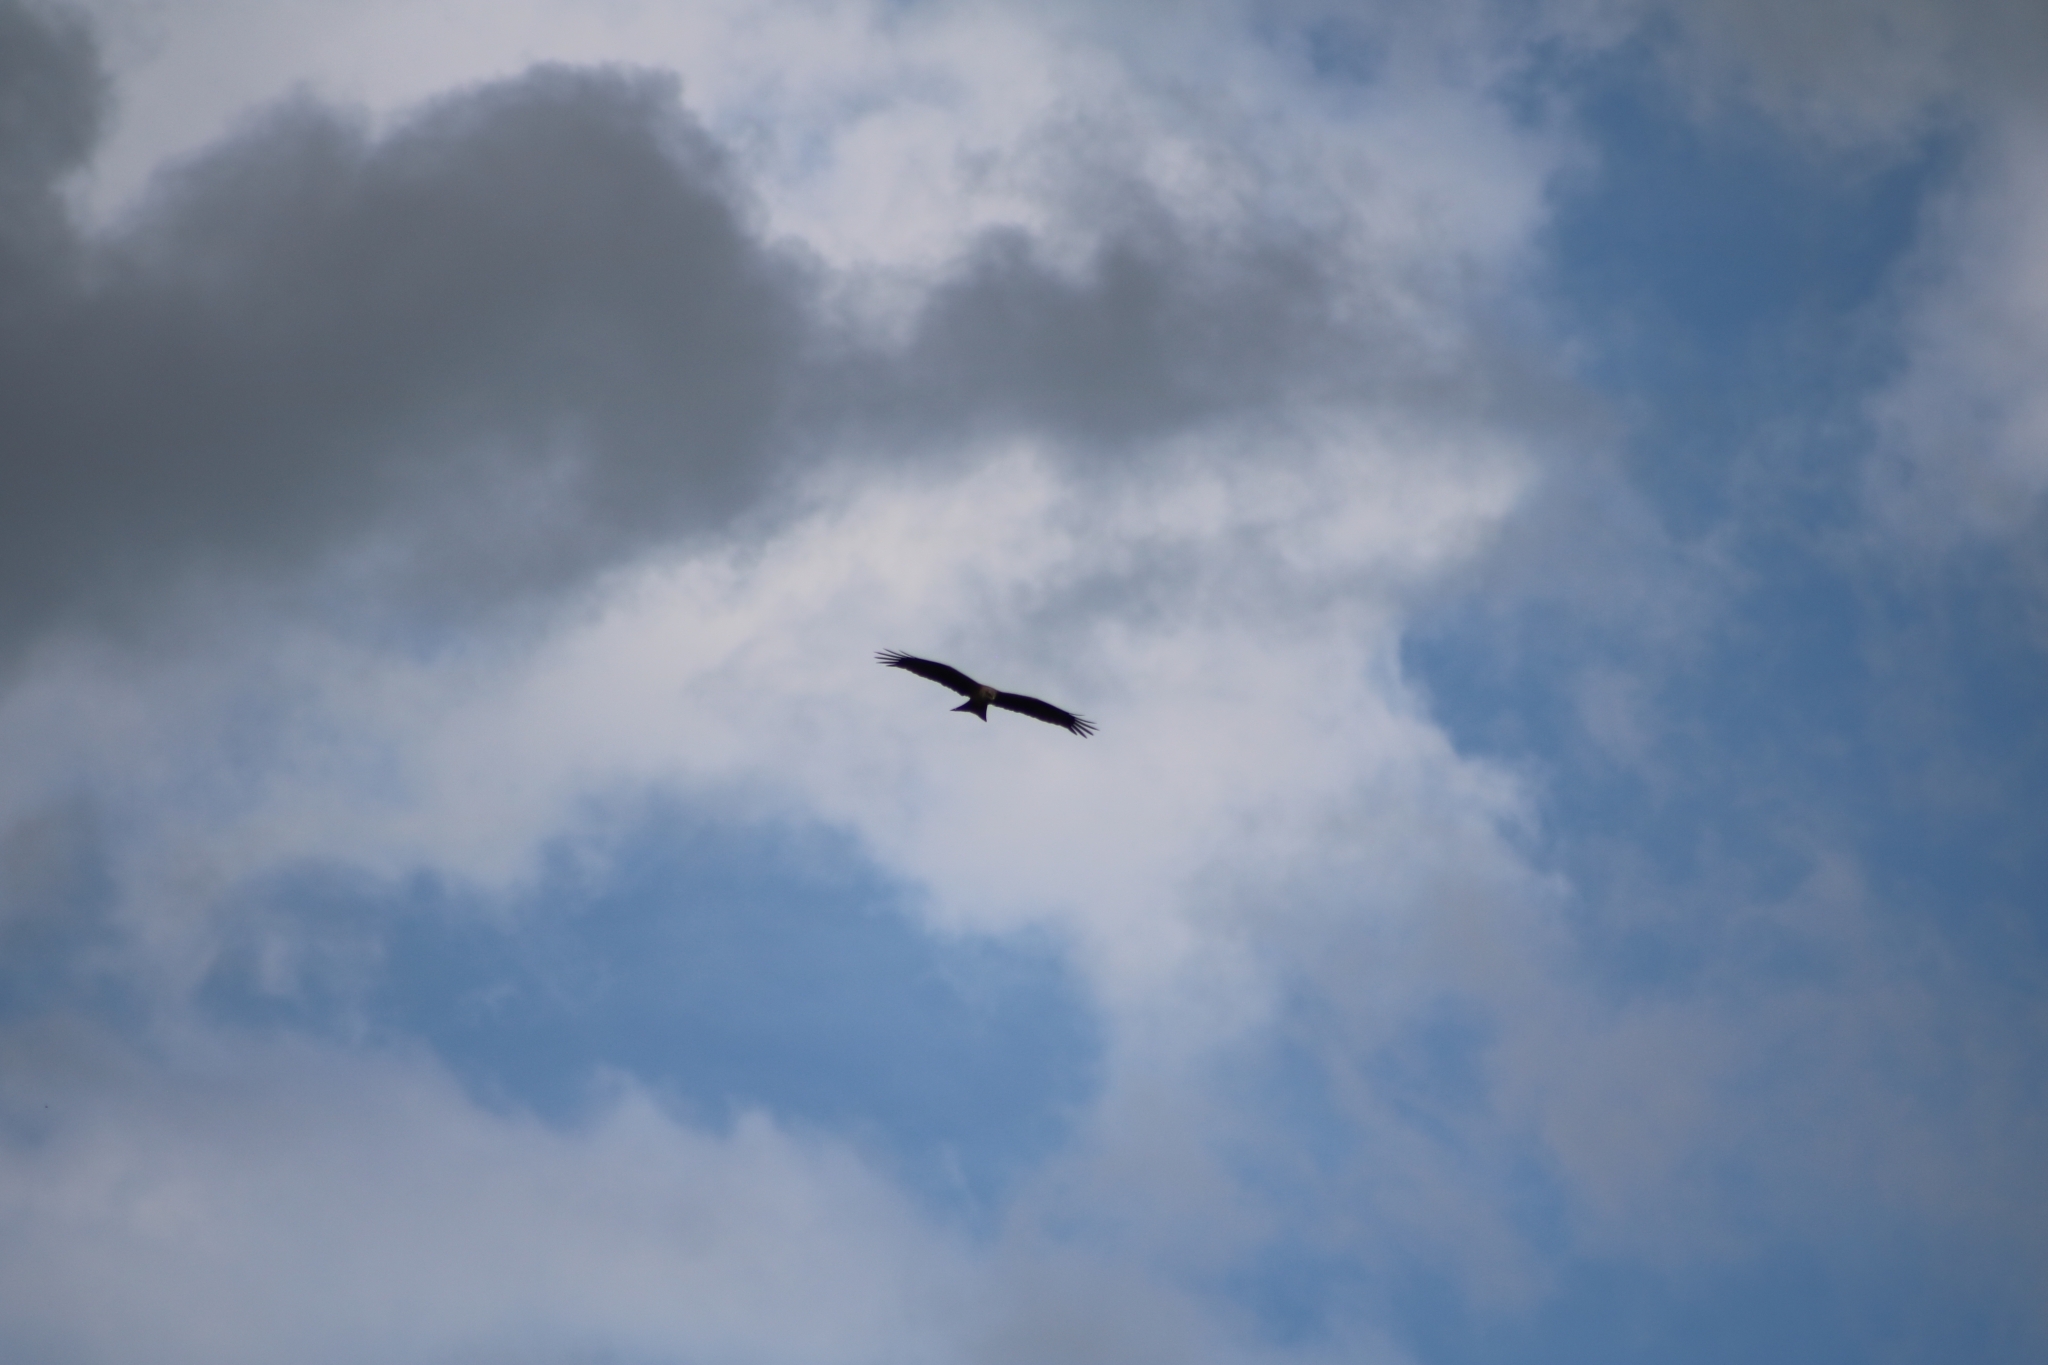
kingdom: Animalia
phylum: Chordata
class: Aves
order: Accipitriformes
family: Accipitridae
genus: Milvus
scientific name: Milvus migrans
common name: Black kite
